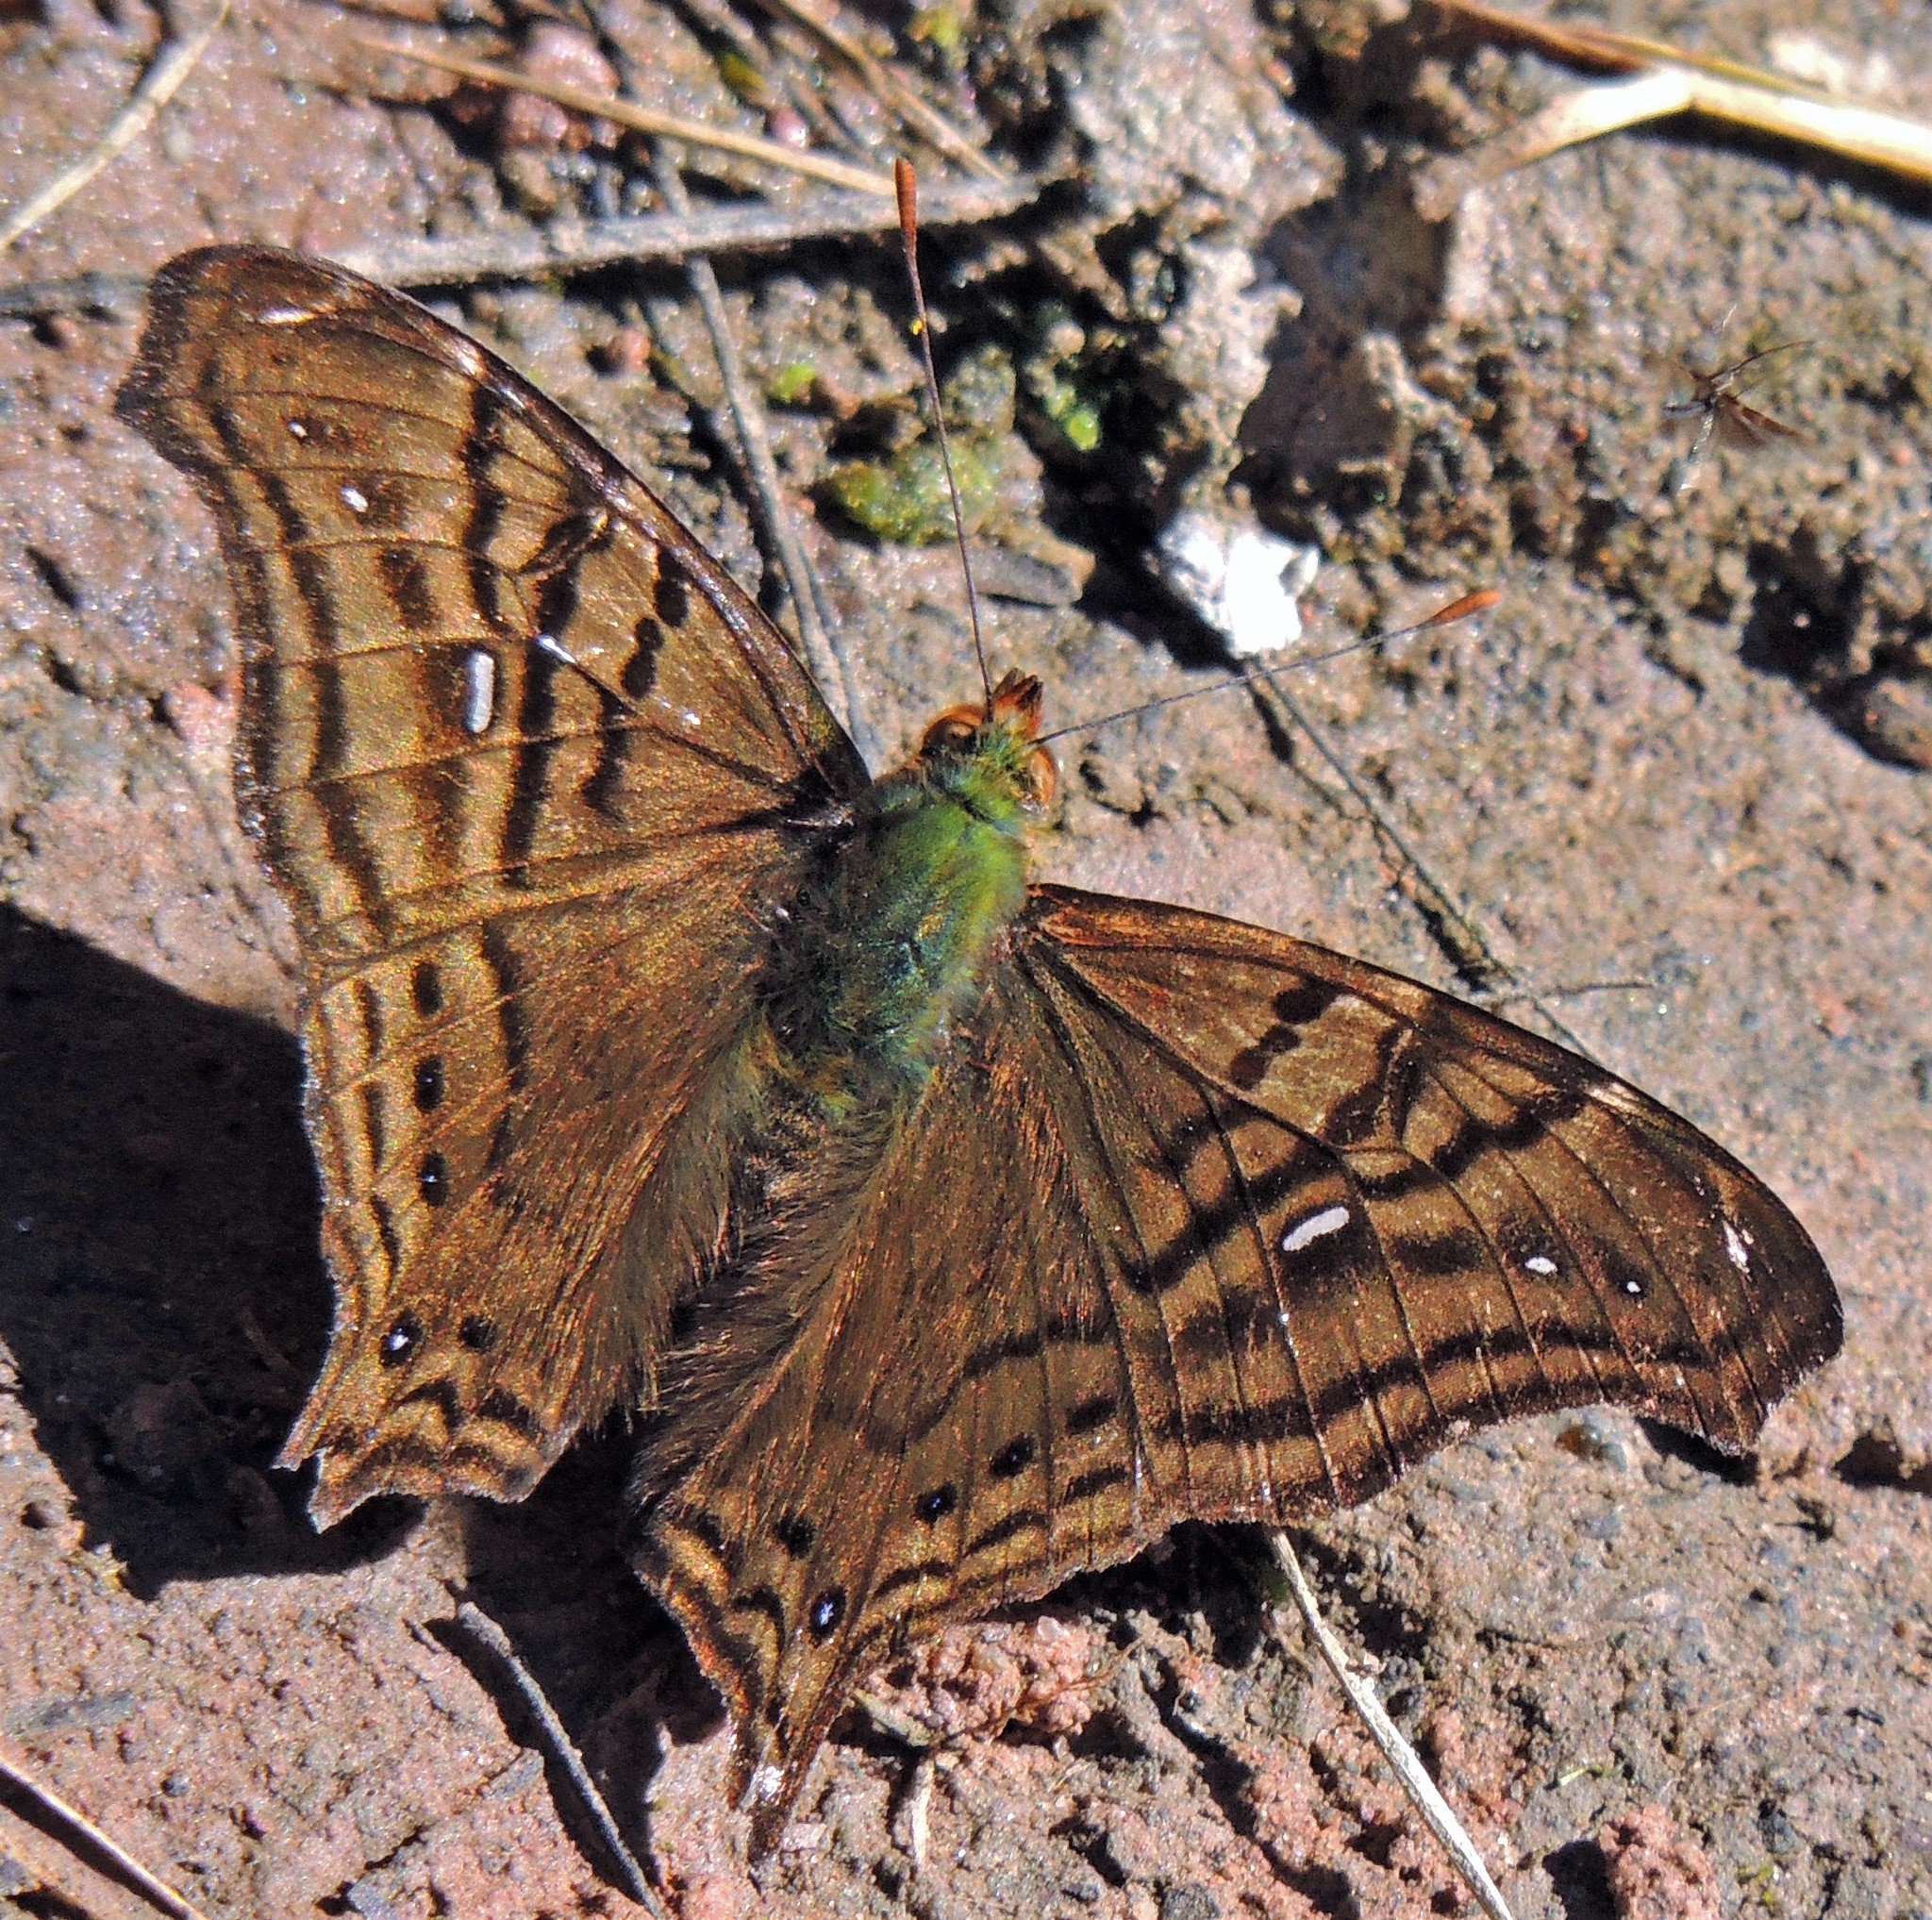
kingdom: Animalia
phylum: Arthropoda
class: Insecta
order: Lepidoptera
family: Nymphalidae
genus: Hypanartia
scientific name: Hypanartia dione
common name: Banded mapwing
